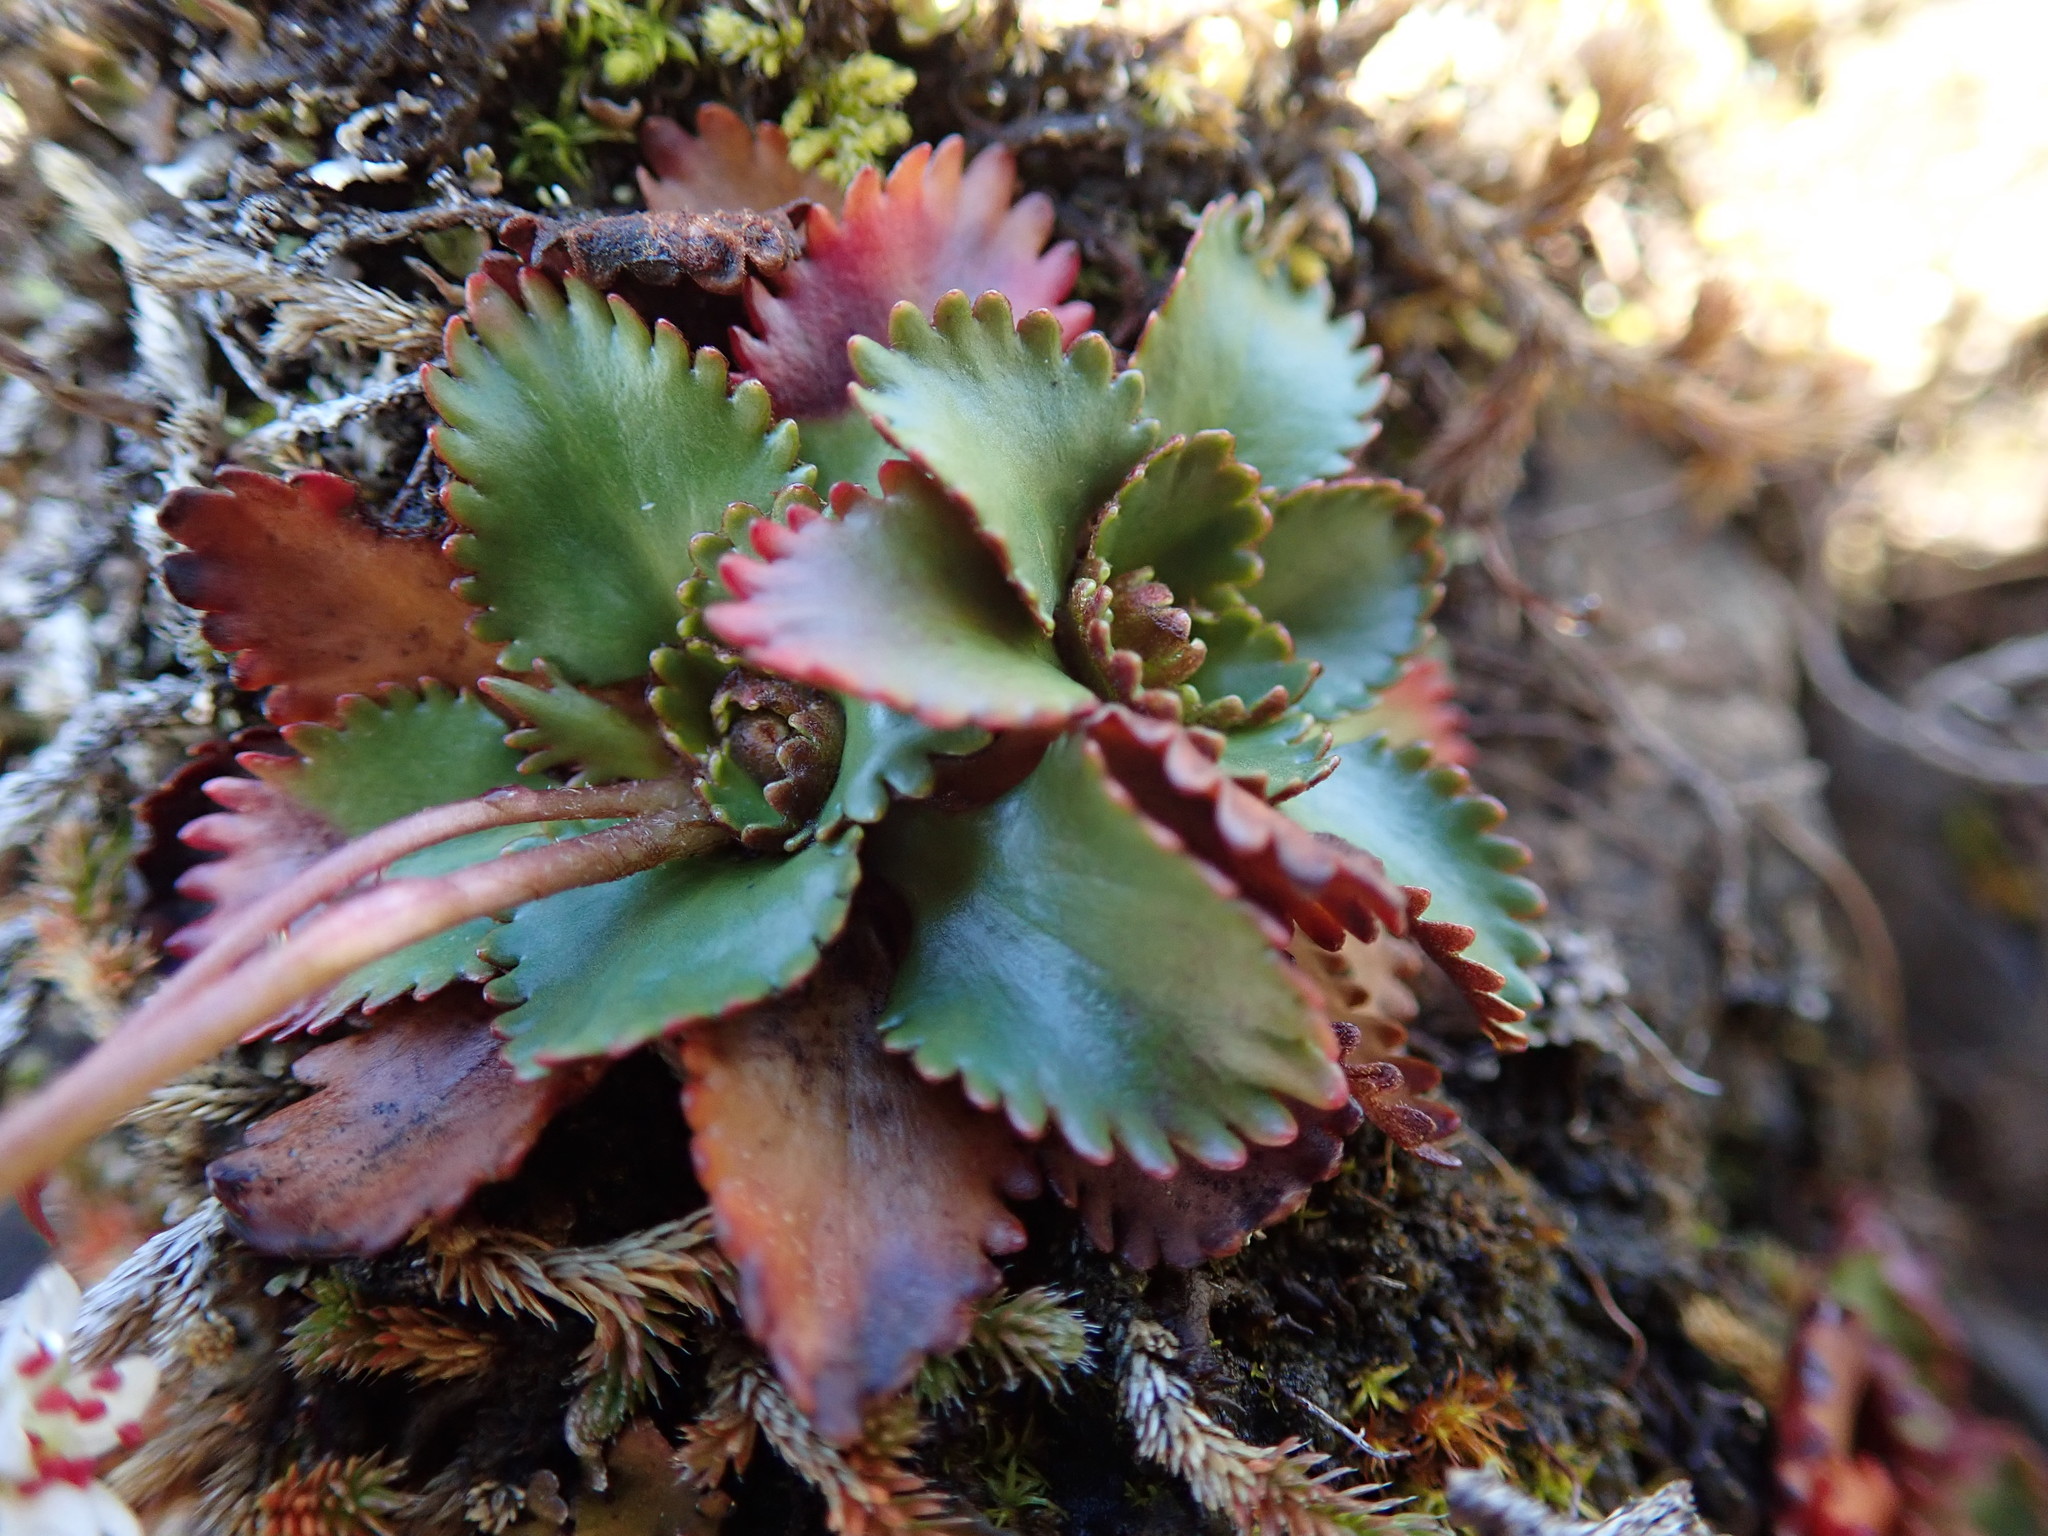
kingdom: Plantae
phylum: Tracheophyta
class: Magnoliopsida
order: Saxifragales
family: Saxifragaceae
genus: Micranthes
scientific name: Micranthes rufidula
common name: Rustyhair saxifrage
